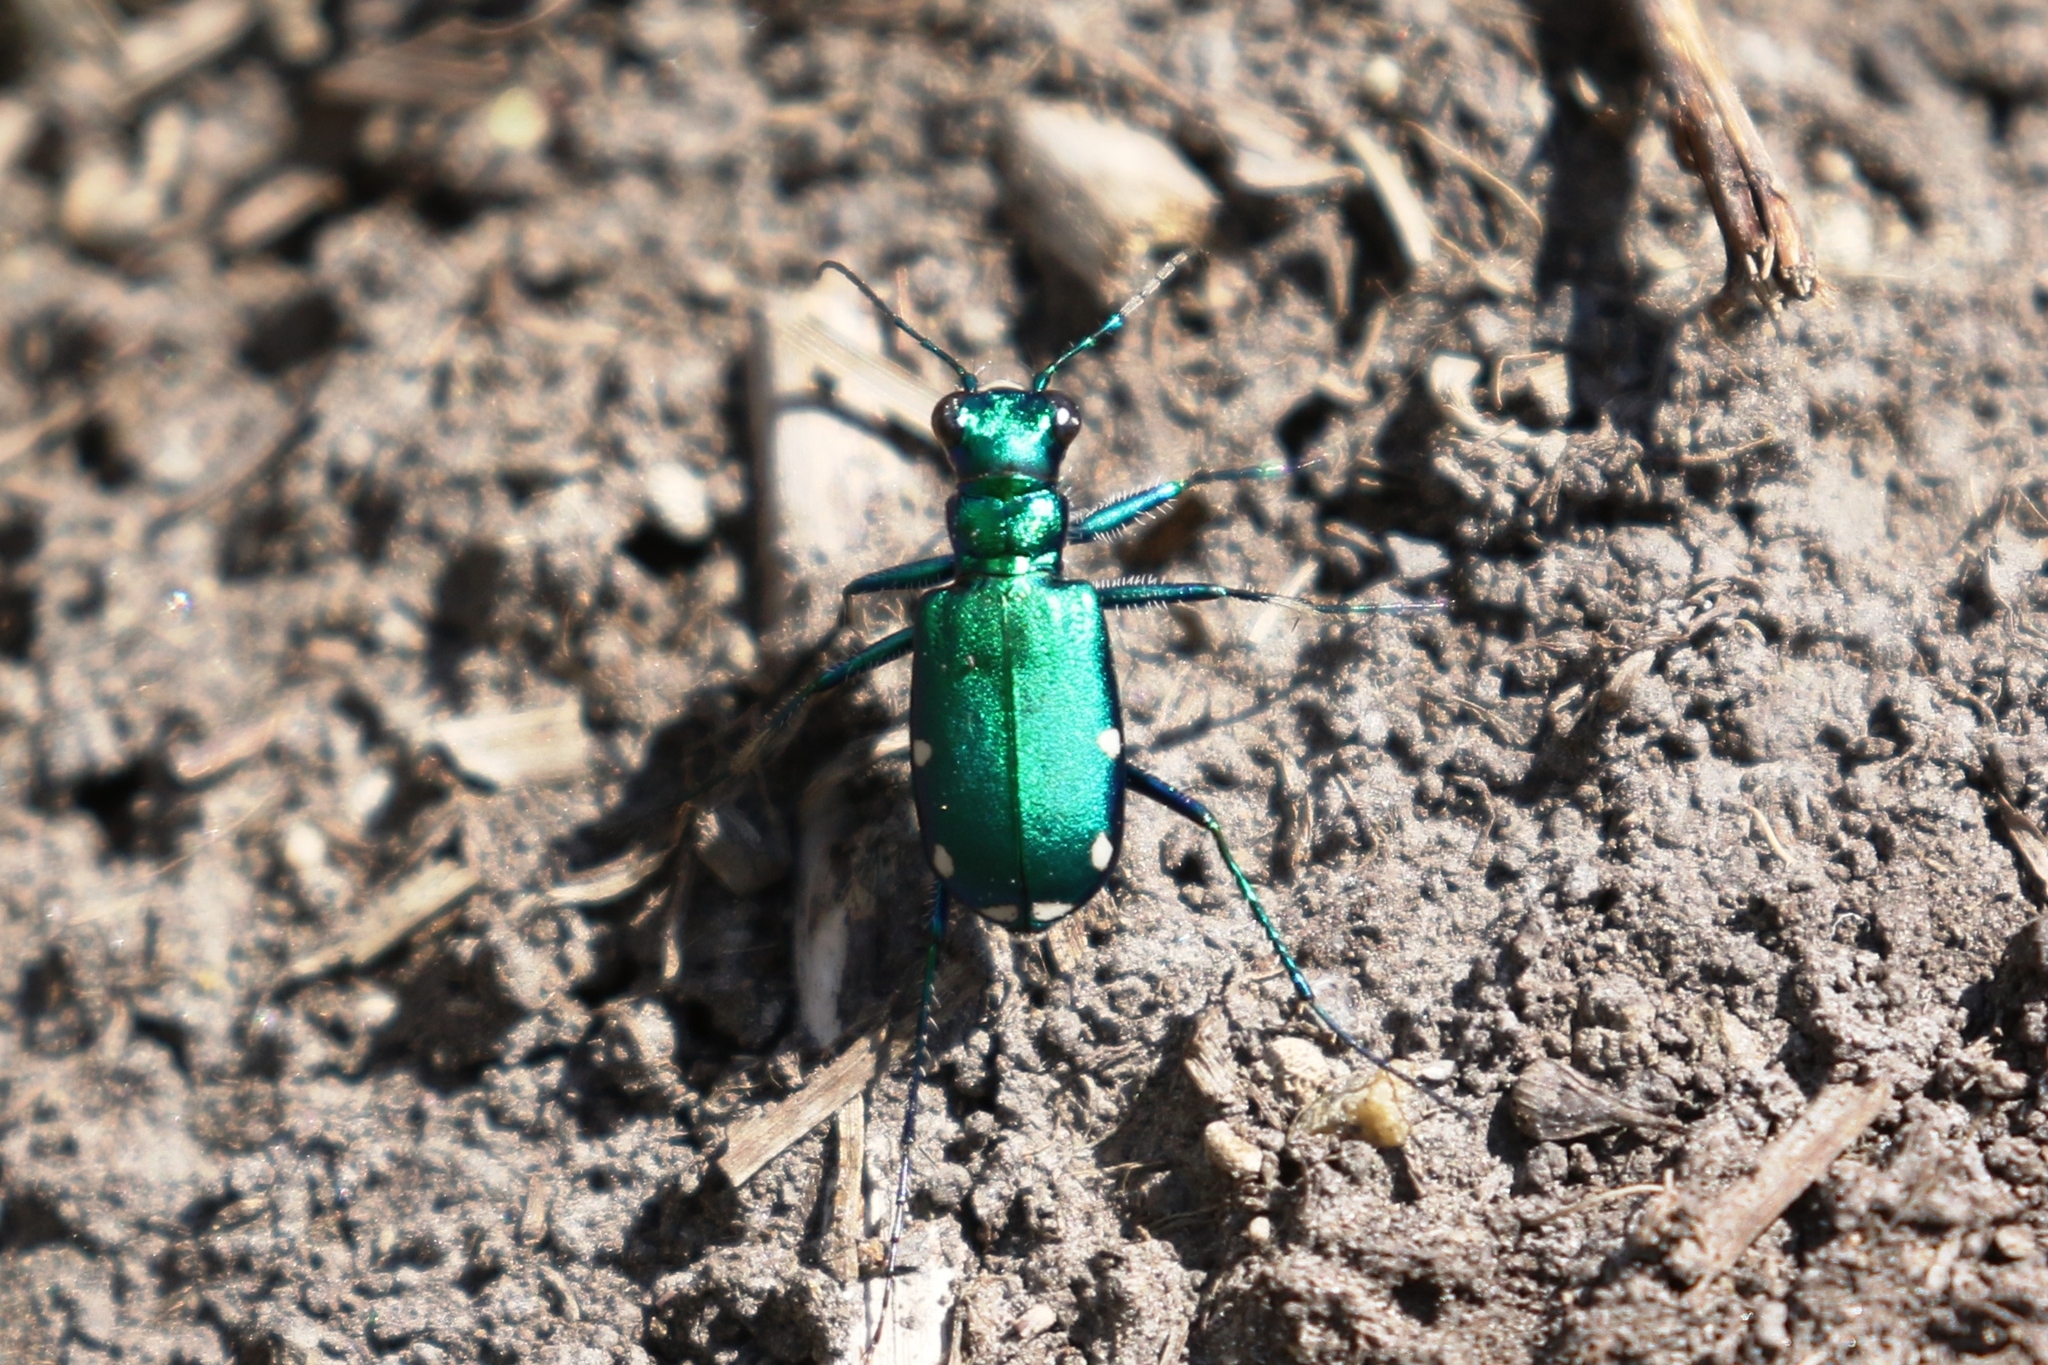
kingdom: Animalia
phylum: Arthropoda
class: Insecta
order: Coleoptera
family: Carabidae
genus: Cicindela
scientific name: Cicindela sexguttata
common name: Six-spotted tiger beetle
